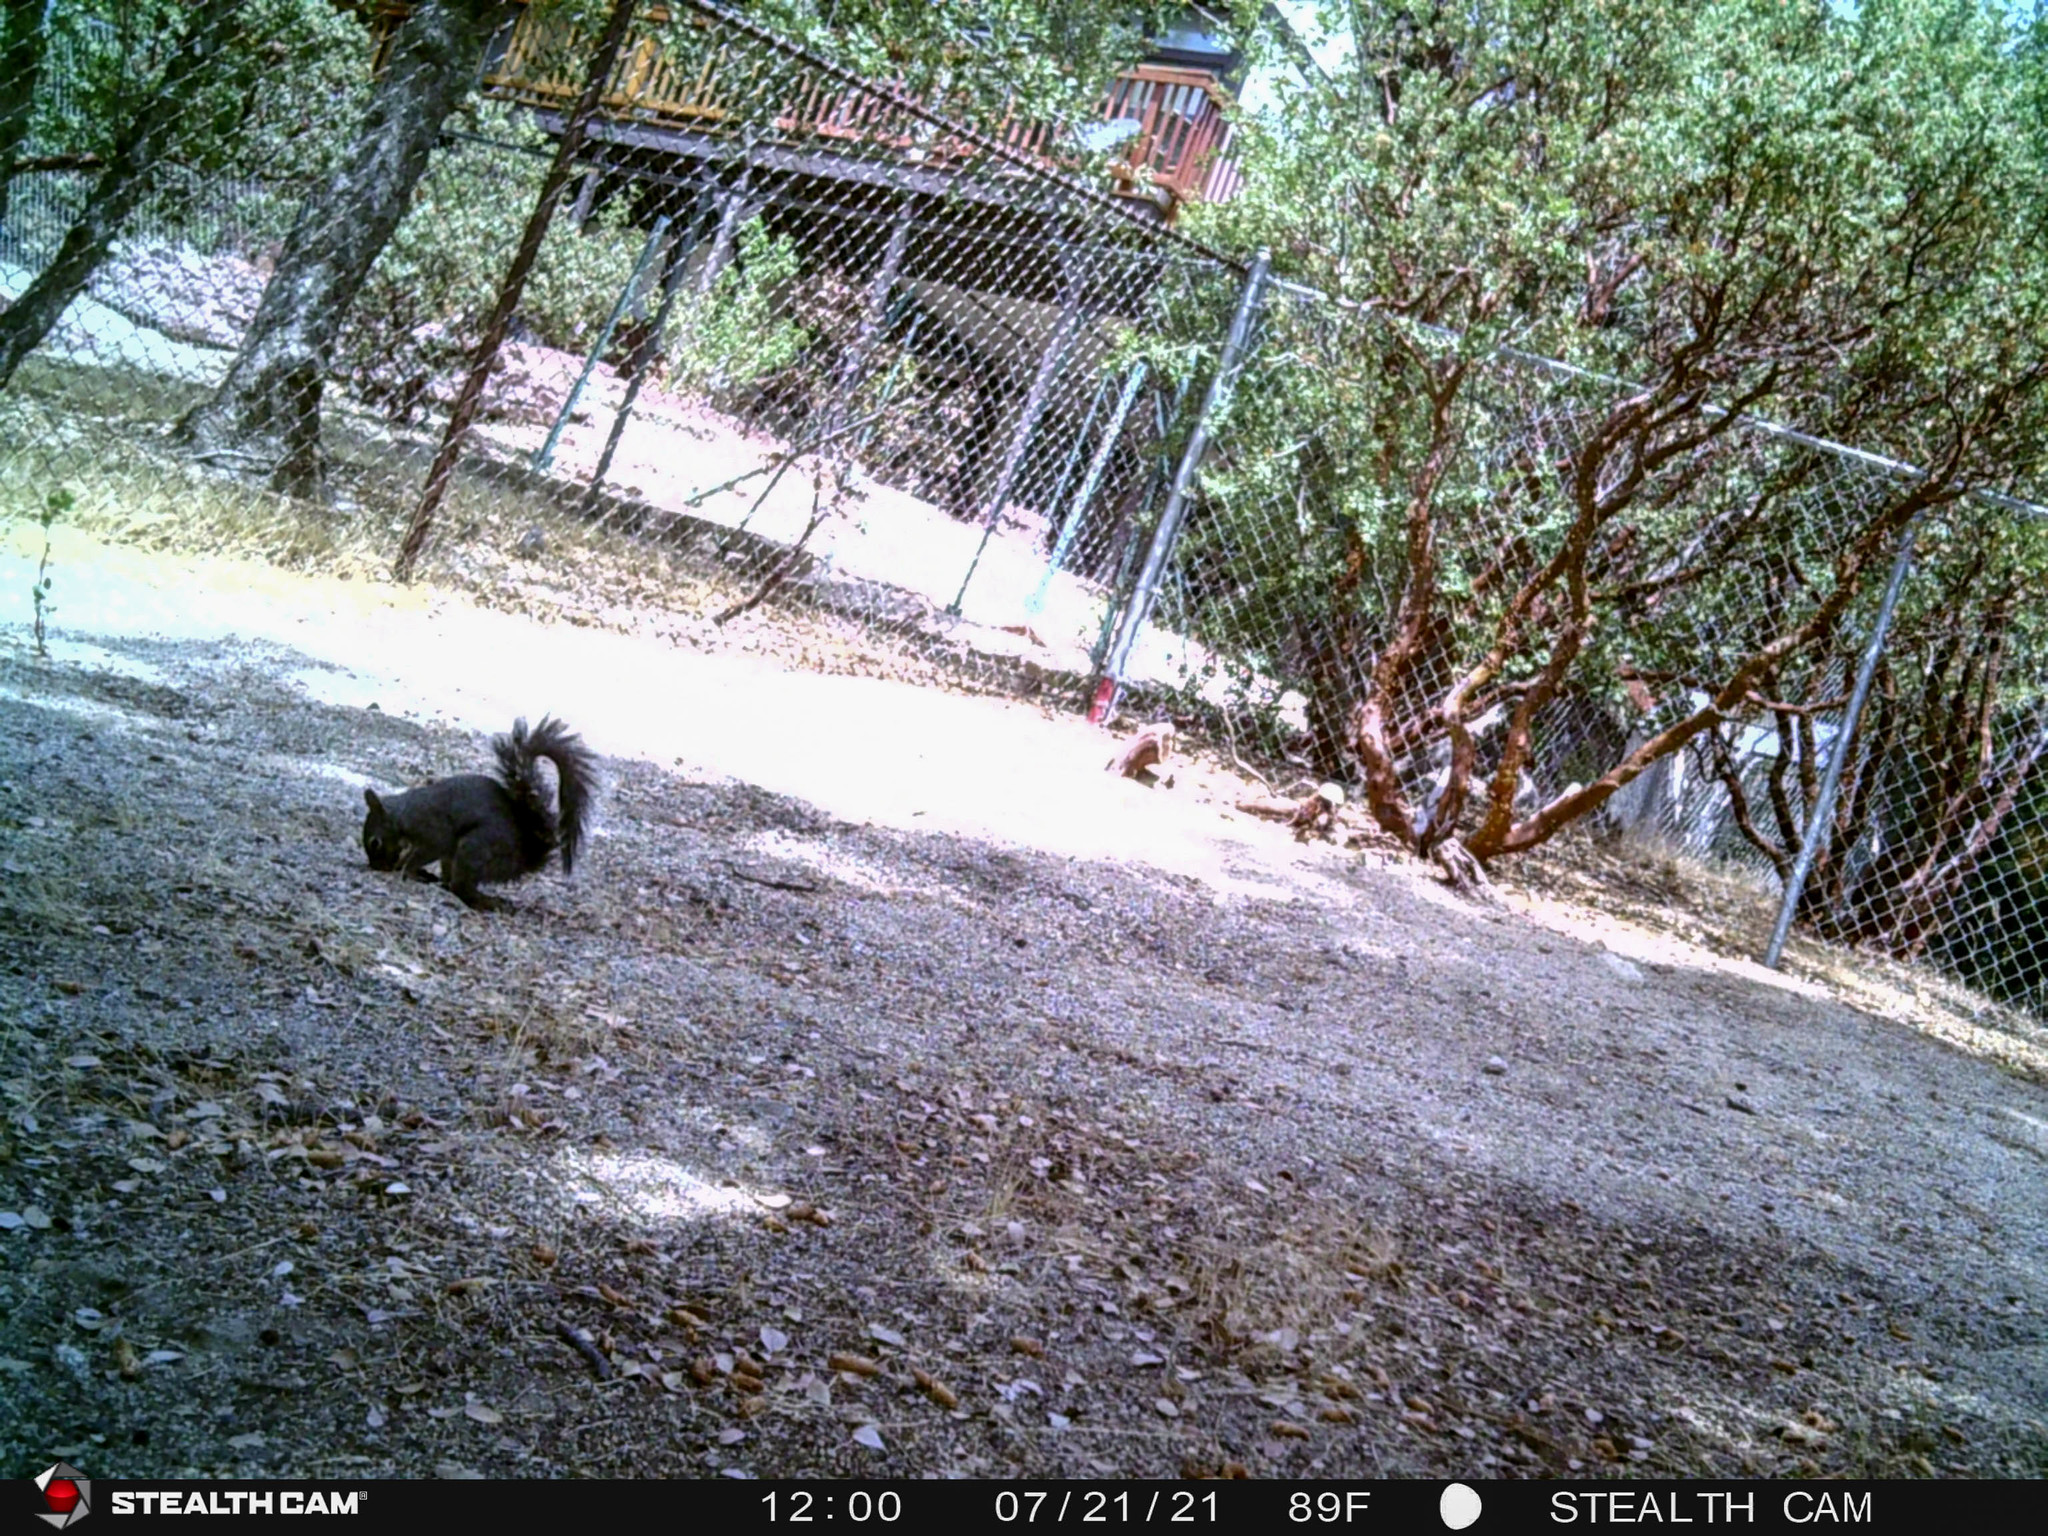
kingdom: Animalia
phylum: Chordata
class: Mammalia
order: Rodentia
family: Sciuridae
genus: Sciurus
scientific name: Sciurus griseus
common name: Western gray squirrel
